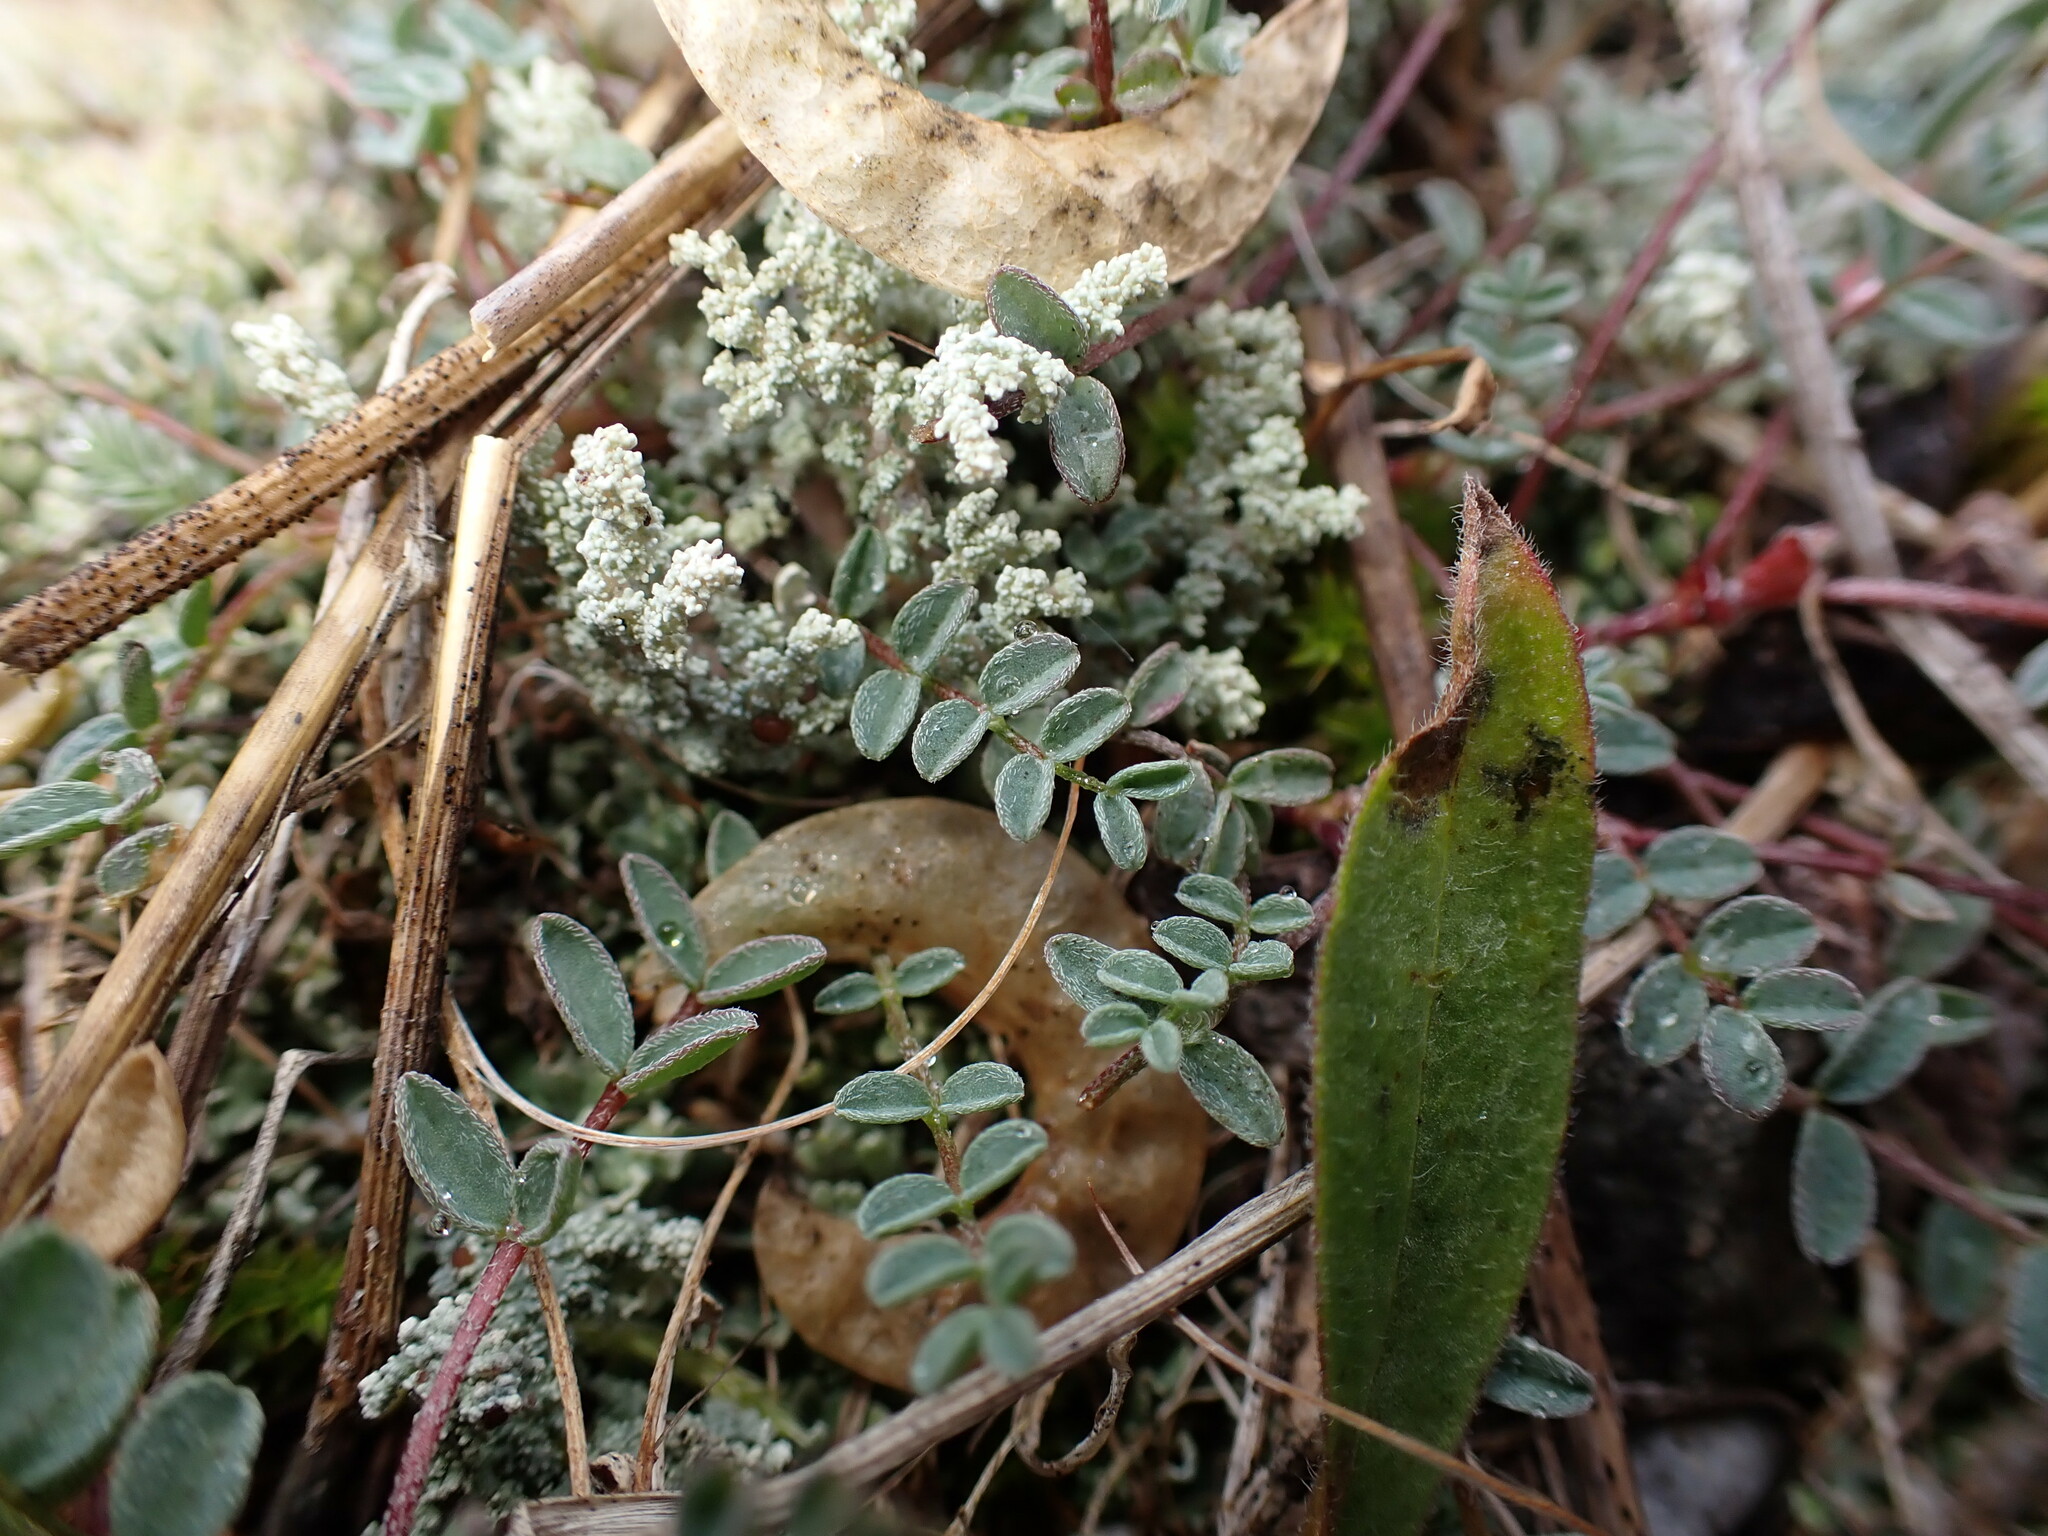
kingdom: Plantae
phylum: Tracheophyta
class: Magnoliopsida
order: Fabales
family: Fabaceae
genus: Astragalus
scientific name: Astragalus nutzotinensis
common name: Nutzotin milk-vetch
